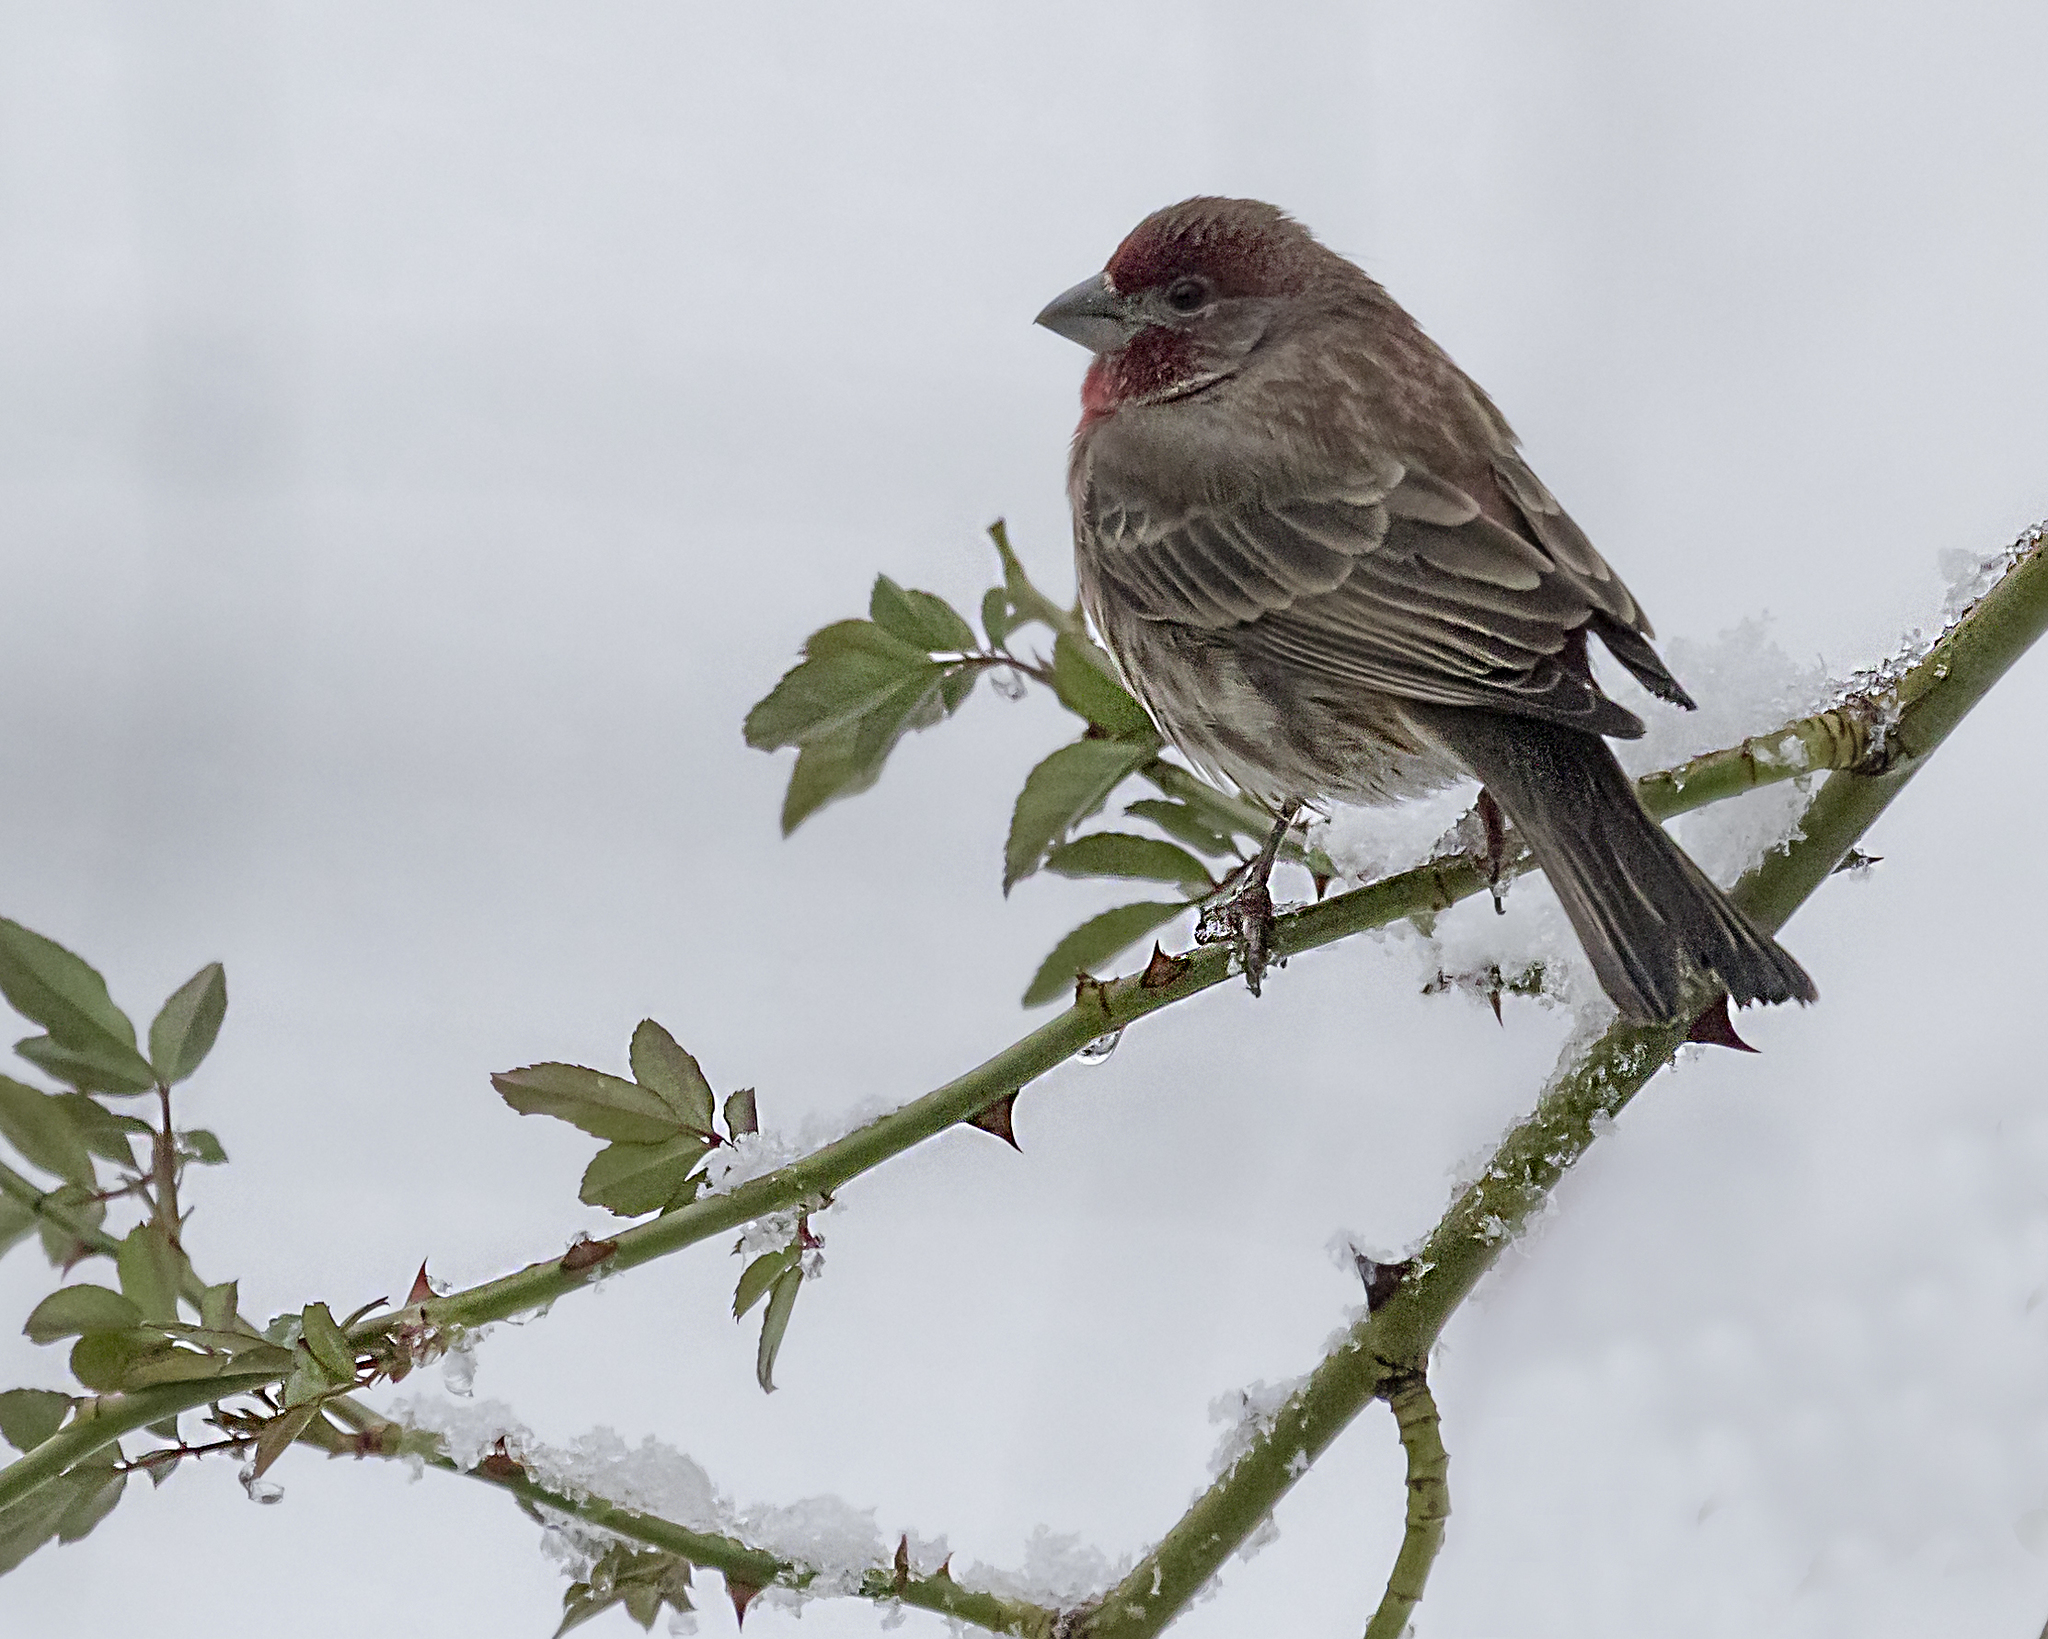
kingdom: Animalia
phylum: Chordata
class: Aves
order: Passeriformes
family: Fringillidae
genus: Haemorhous
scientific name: Haemorhous mexicanus
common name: House finch
